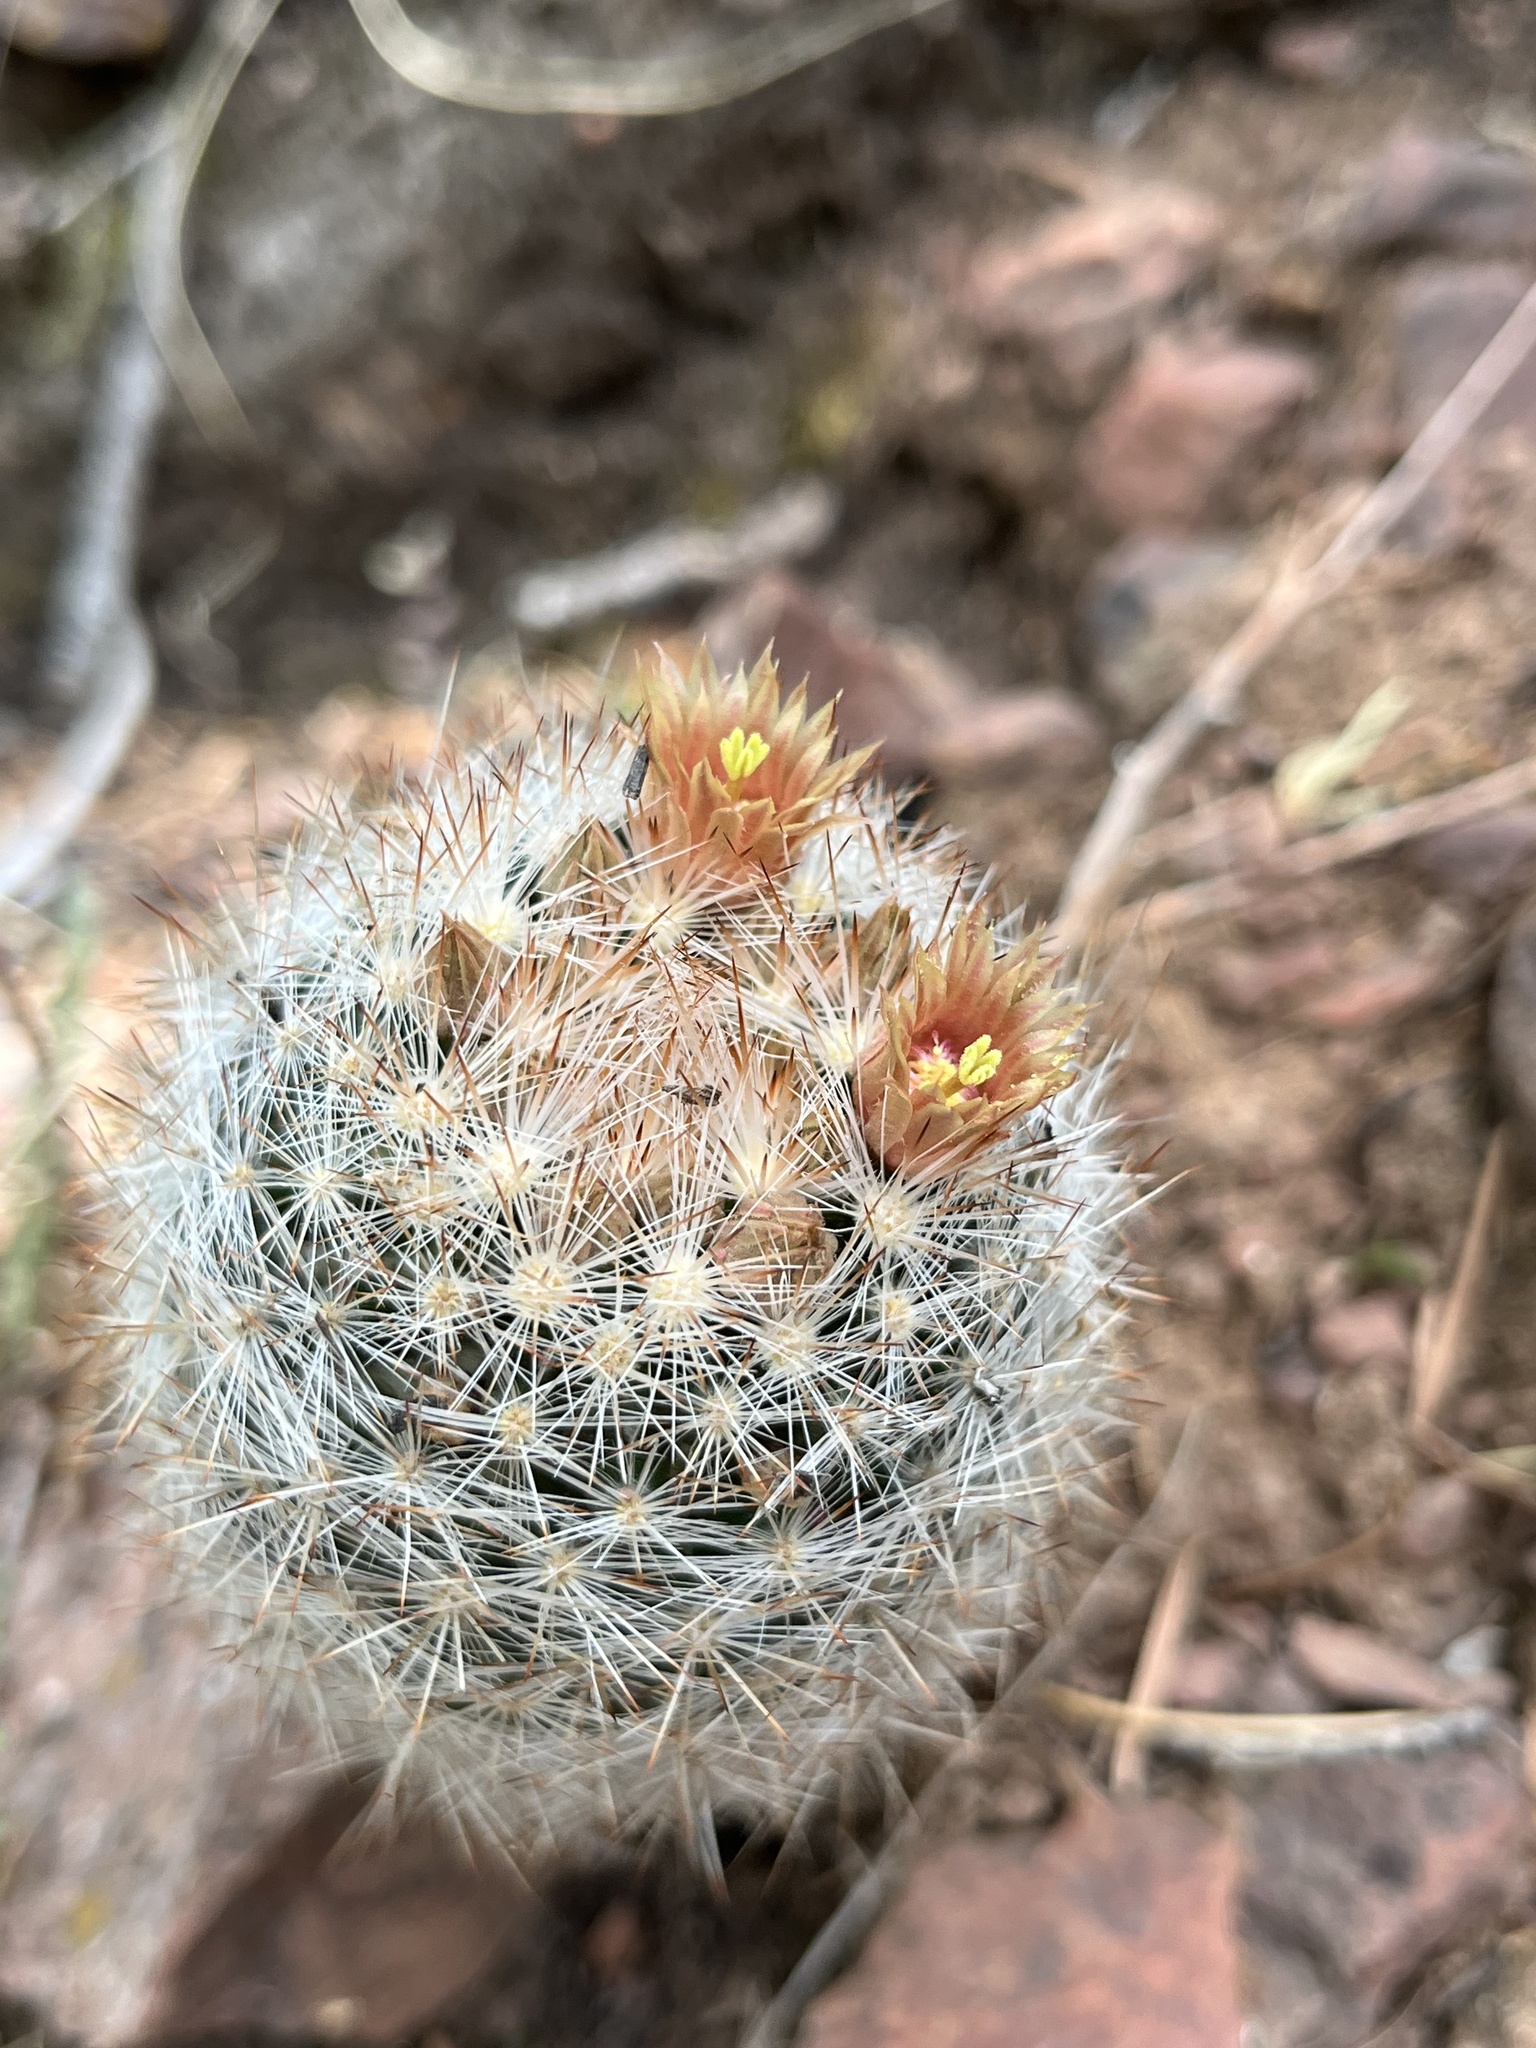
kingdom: Plantae
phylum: Tracheophyta
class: Magnoliopsida
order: Caryophyllales
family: Cactaceae
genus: Pelecyphora
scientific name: Pelecyphora dasyacantha
